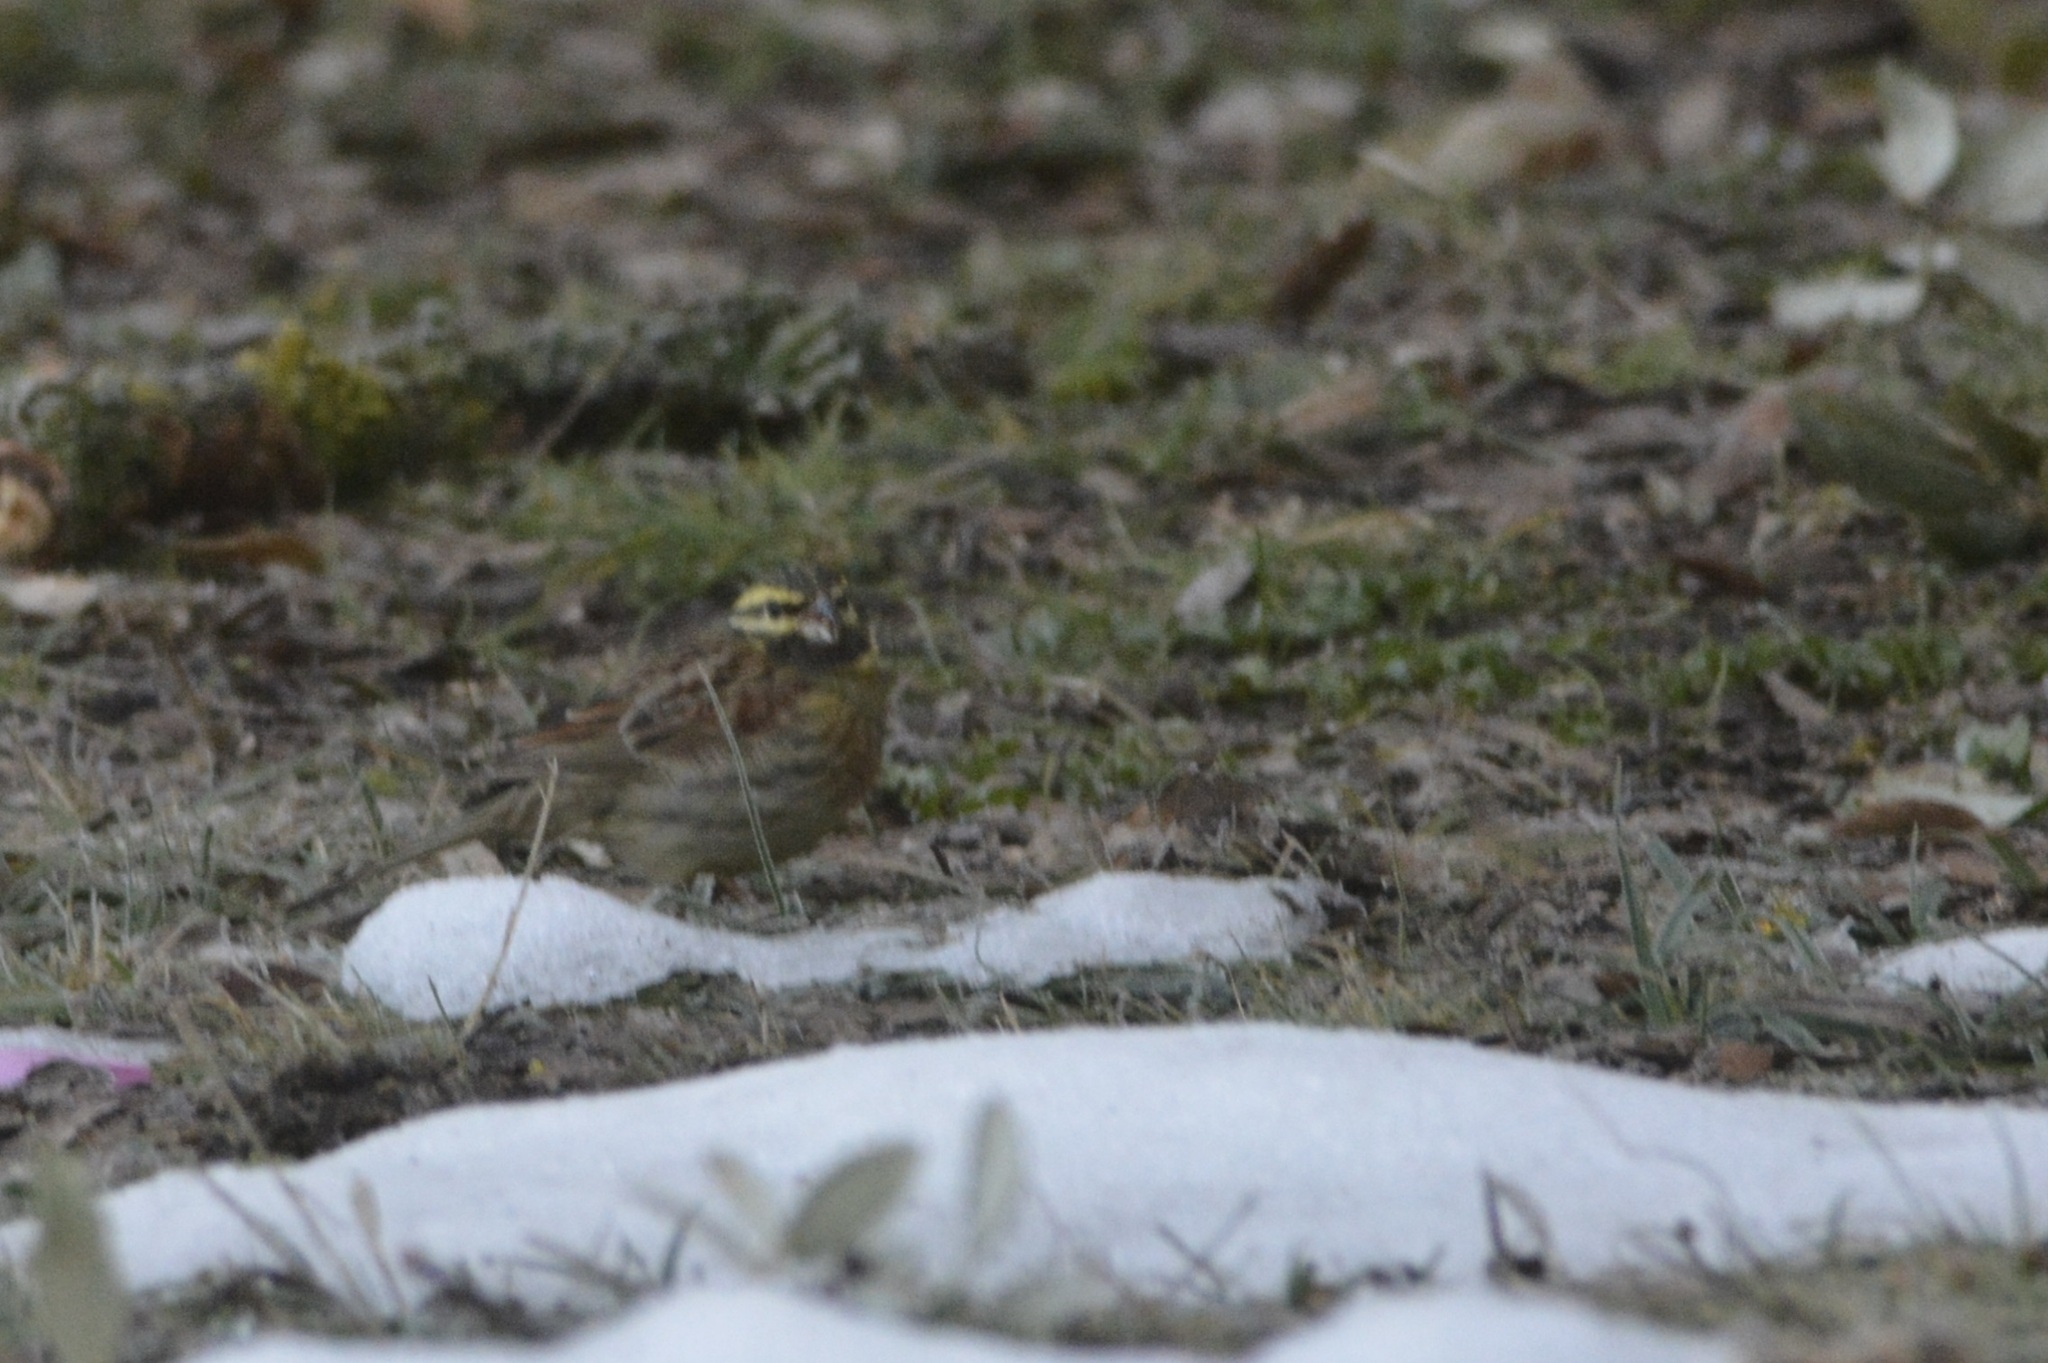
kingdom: Animalia
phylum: Chordata
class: Aves
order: Passeriformes
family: Emberizidae
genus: Emberiza
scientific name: Emberiza cirlus
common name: Cirl bunting
